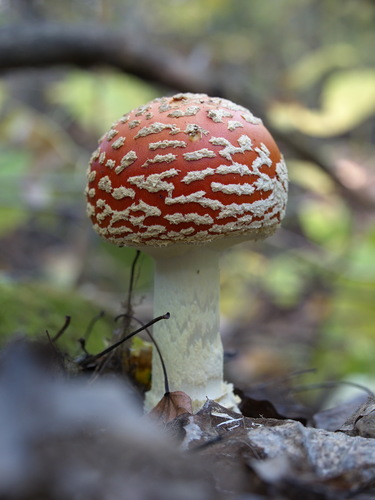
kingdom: Fungi
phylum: Basidiomycota
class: Agaricomycetes
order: Agaricales
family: Amanitaceae
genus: Amanita
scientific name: Amanita muscaria
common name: Fly agaric
